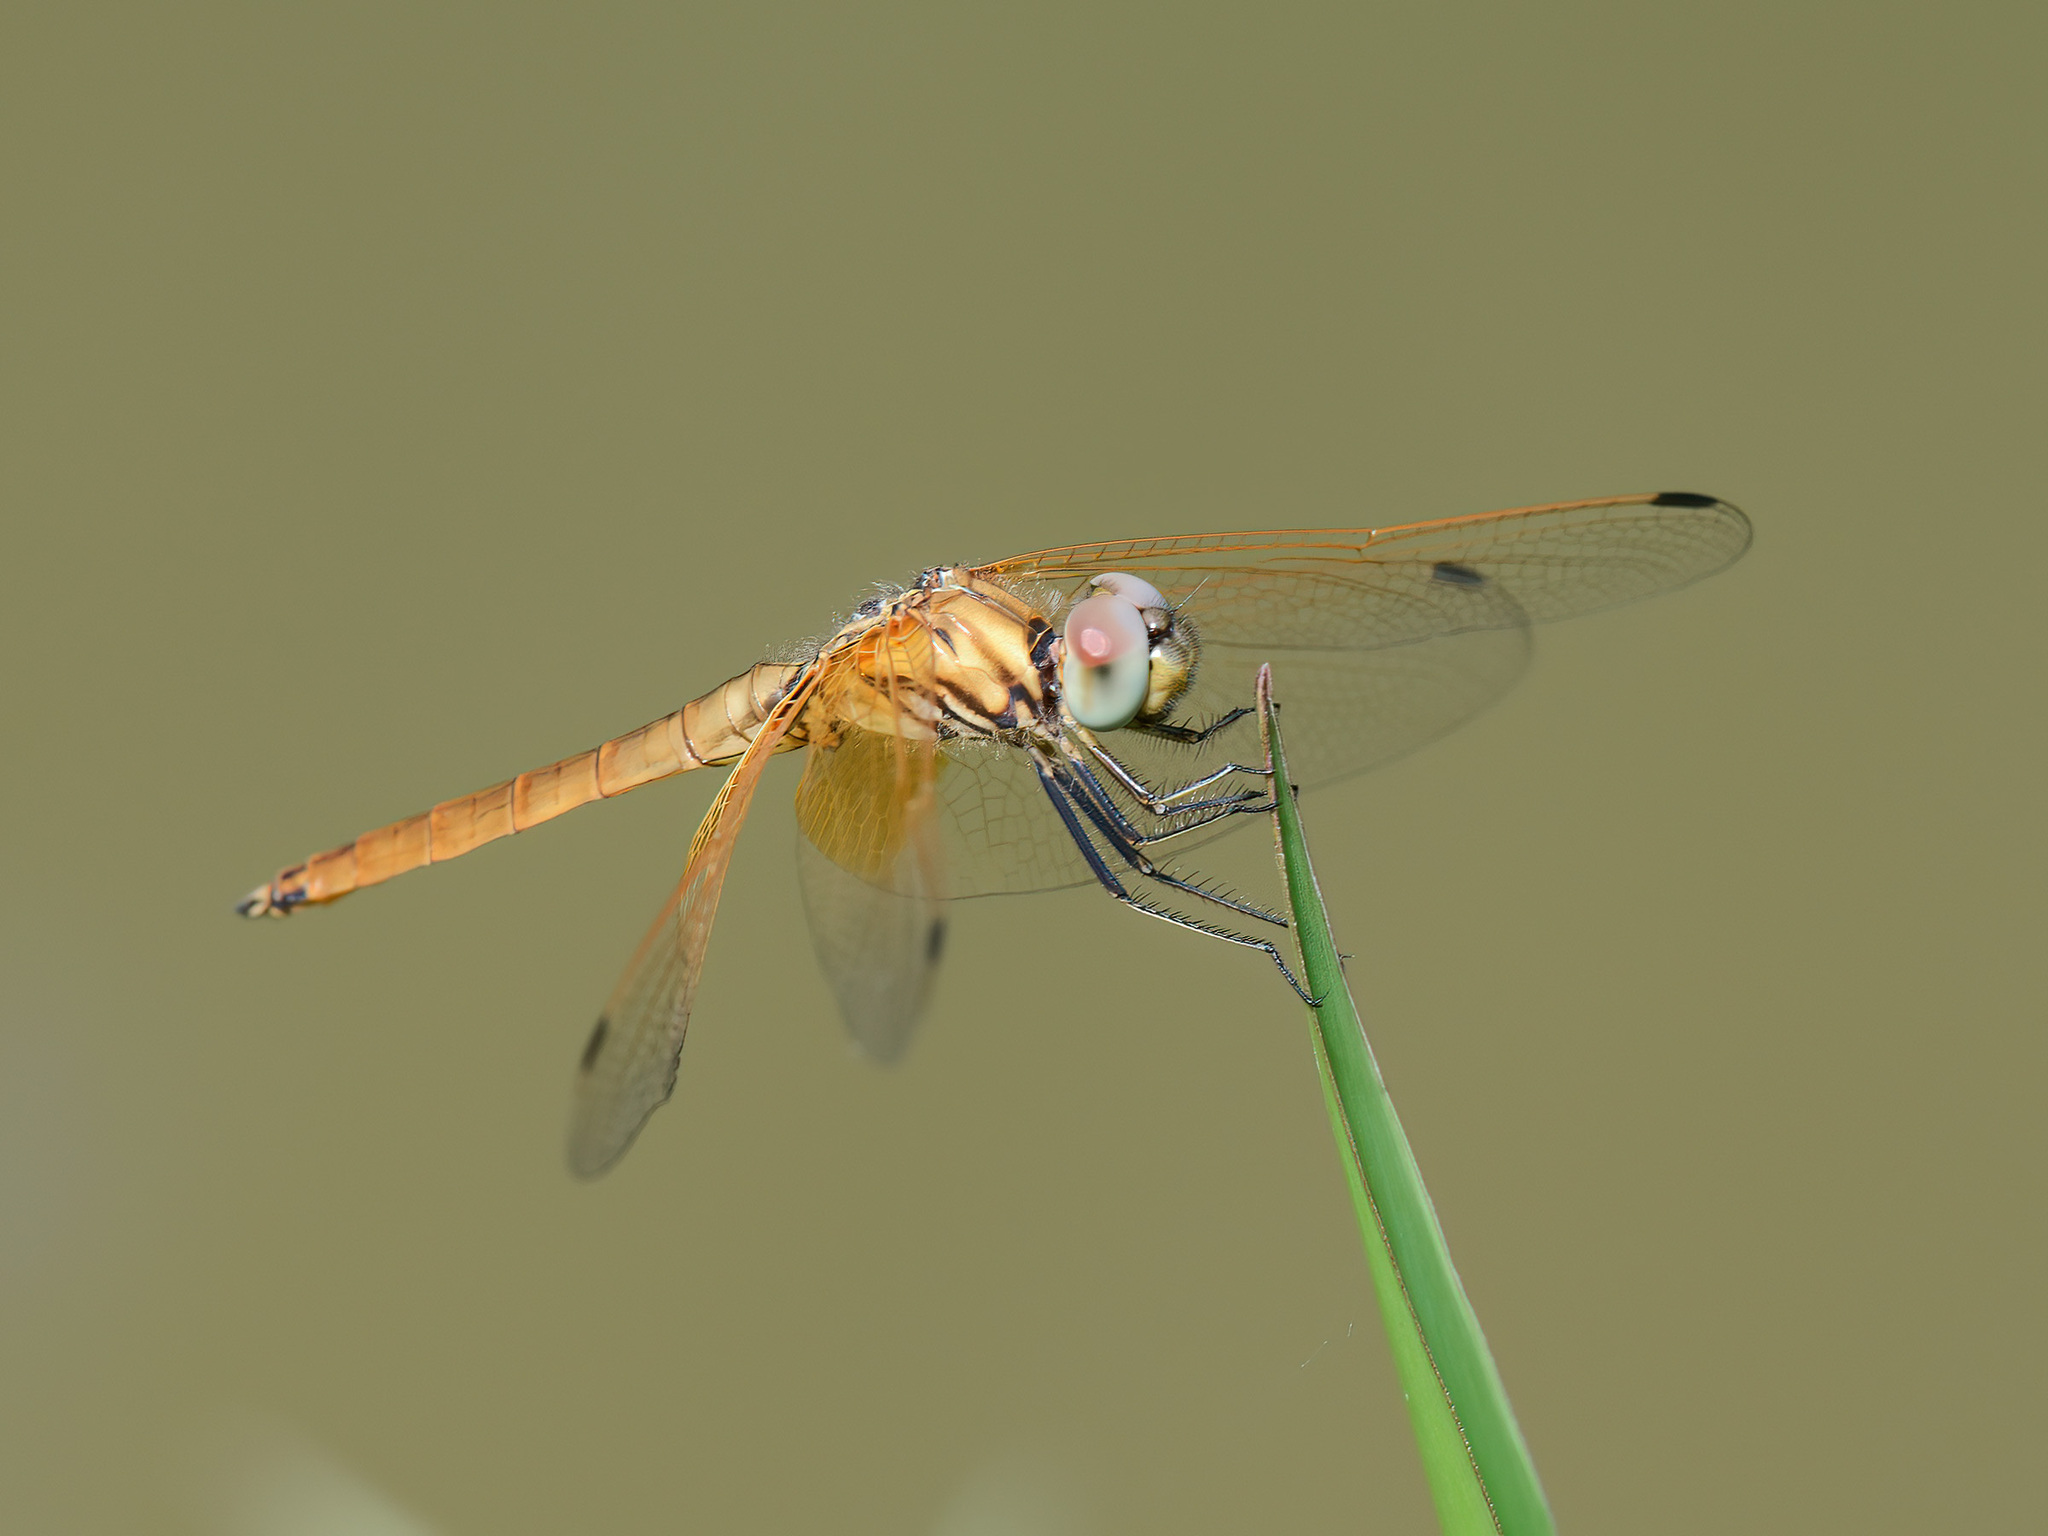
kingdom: Animalia
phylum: Arthropoda
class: Insecta
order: Odonata
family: Libellulidae
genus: Trithemis
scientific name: Trithemis aurora
